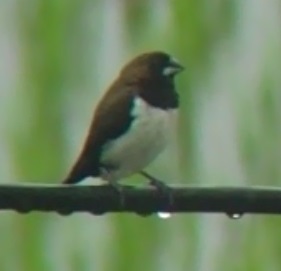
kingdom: Animalia
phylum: Chordata
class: Aves
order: Passeriformes
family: Estrildidae
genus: Lonchura
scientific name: Lonchura leucogastroides
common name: Javan munia
